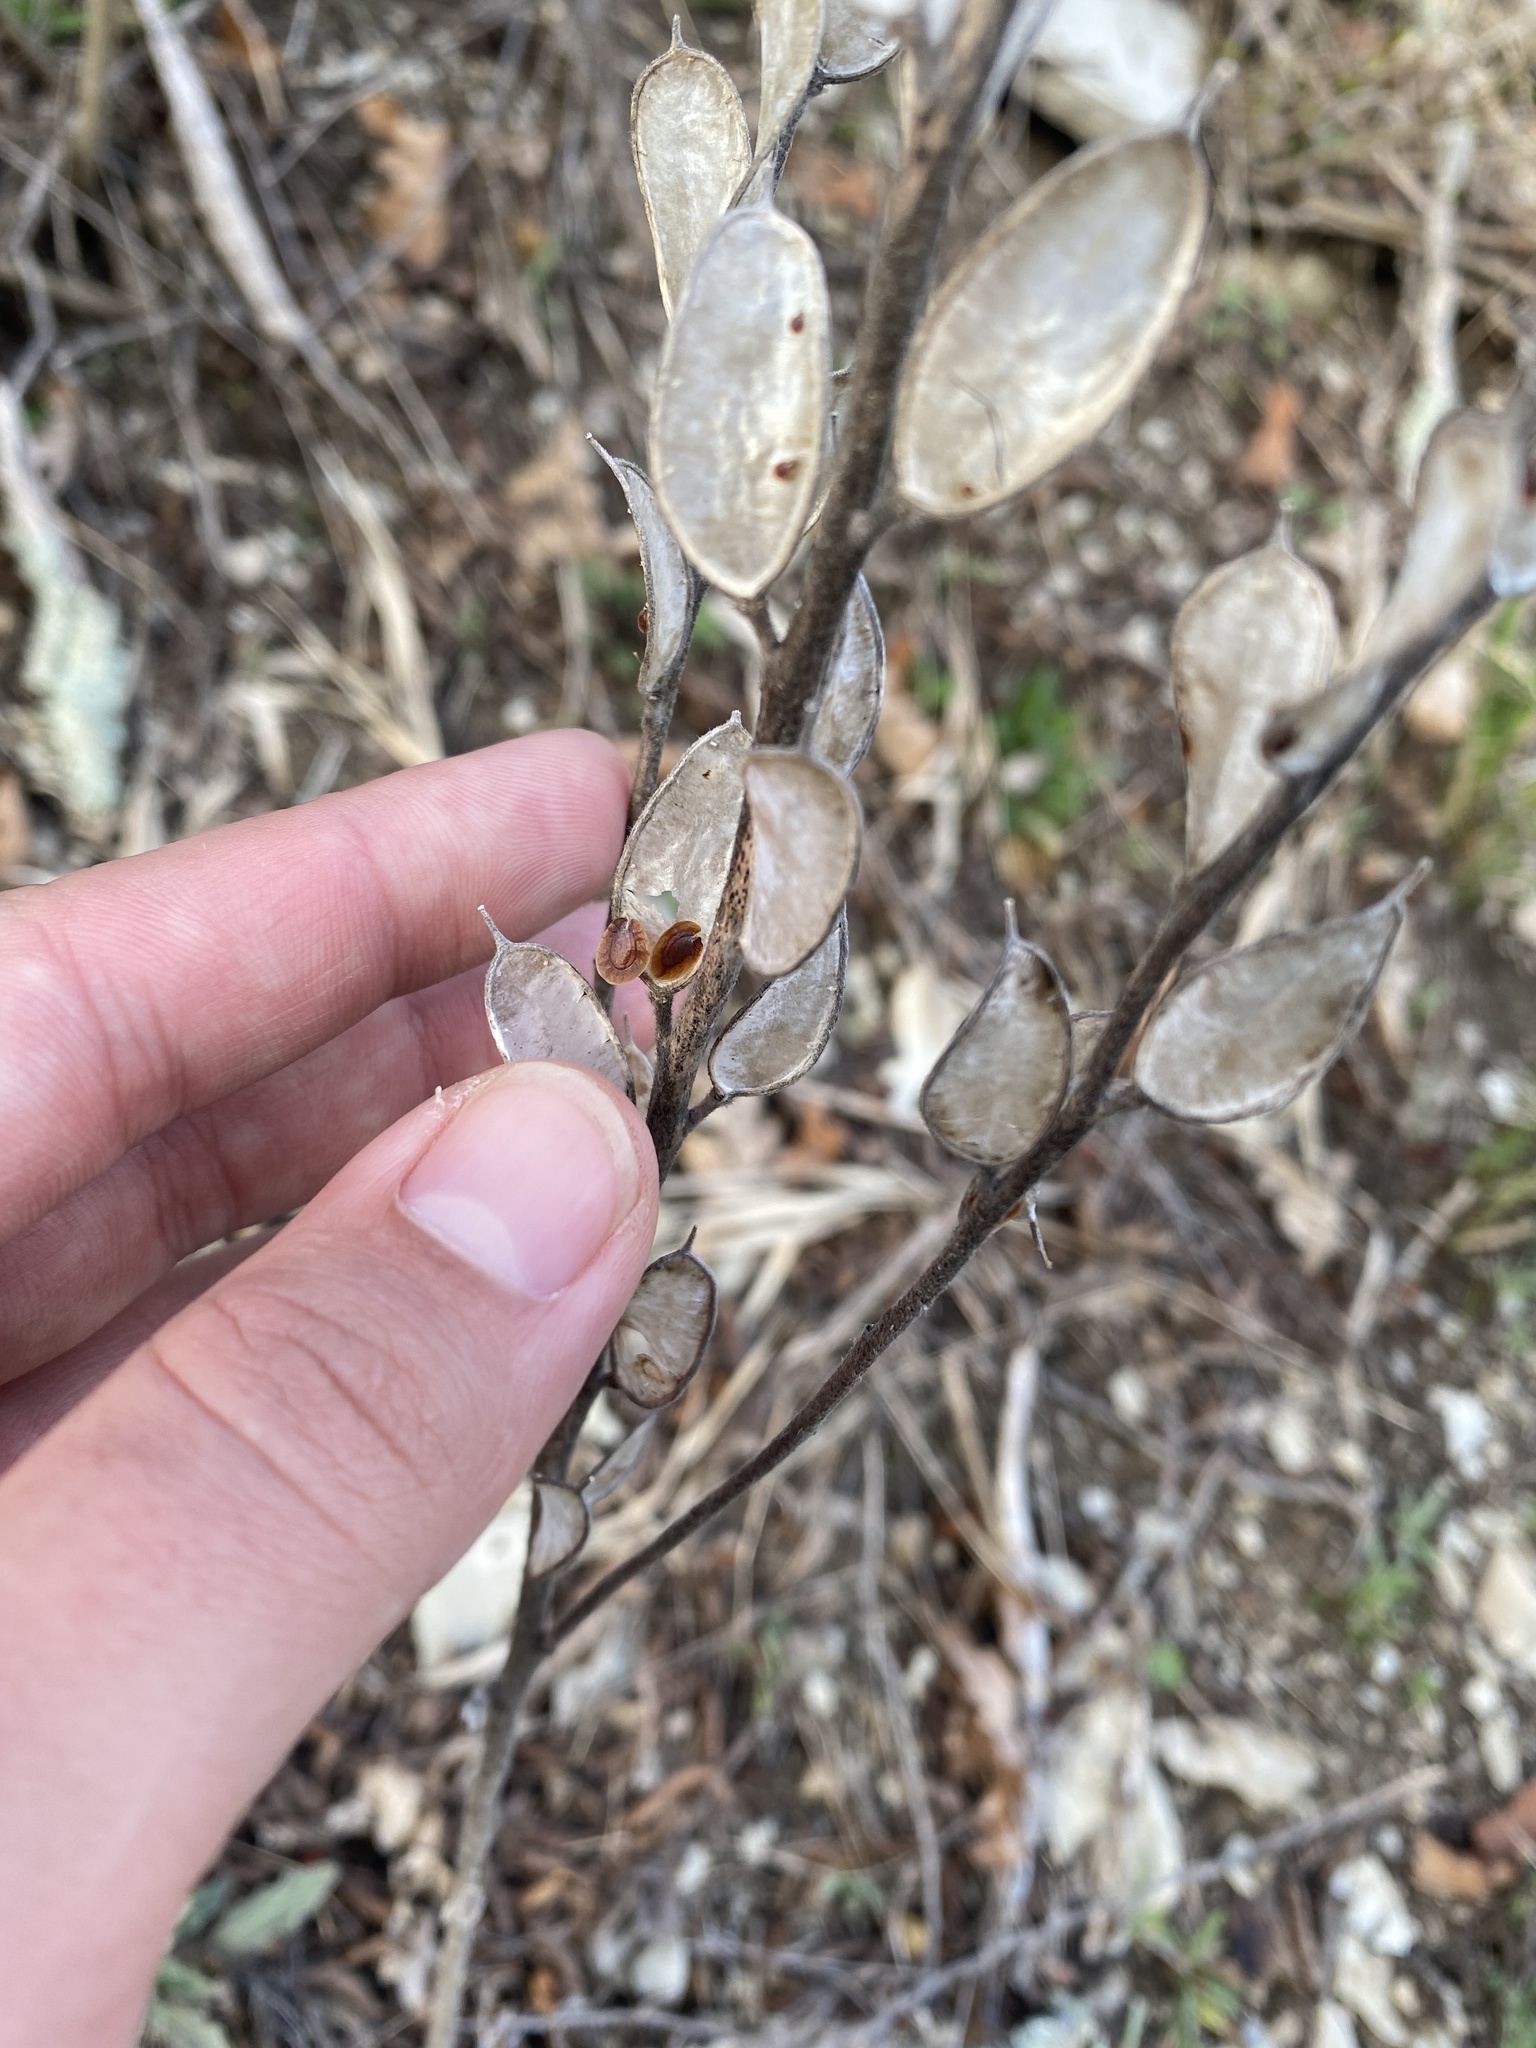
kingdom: Plantae
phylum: Tracheophyta
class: Magnoliopsida
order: Brassicales
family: Brassicaceae
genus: Fibigia
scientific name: Fibigia clypeata
